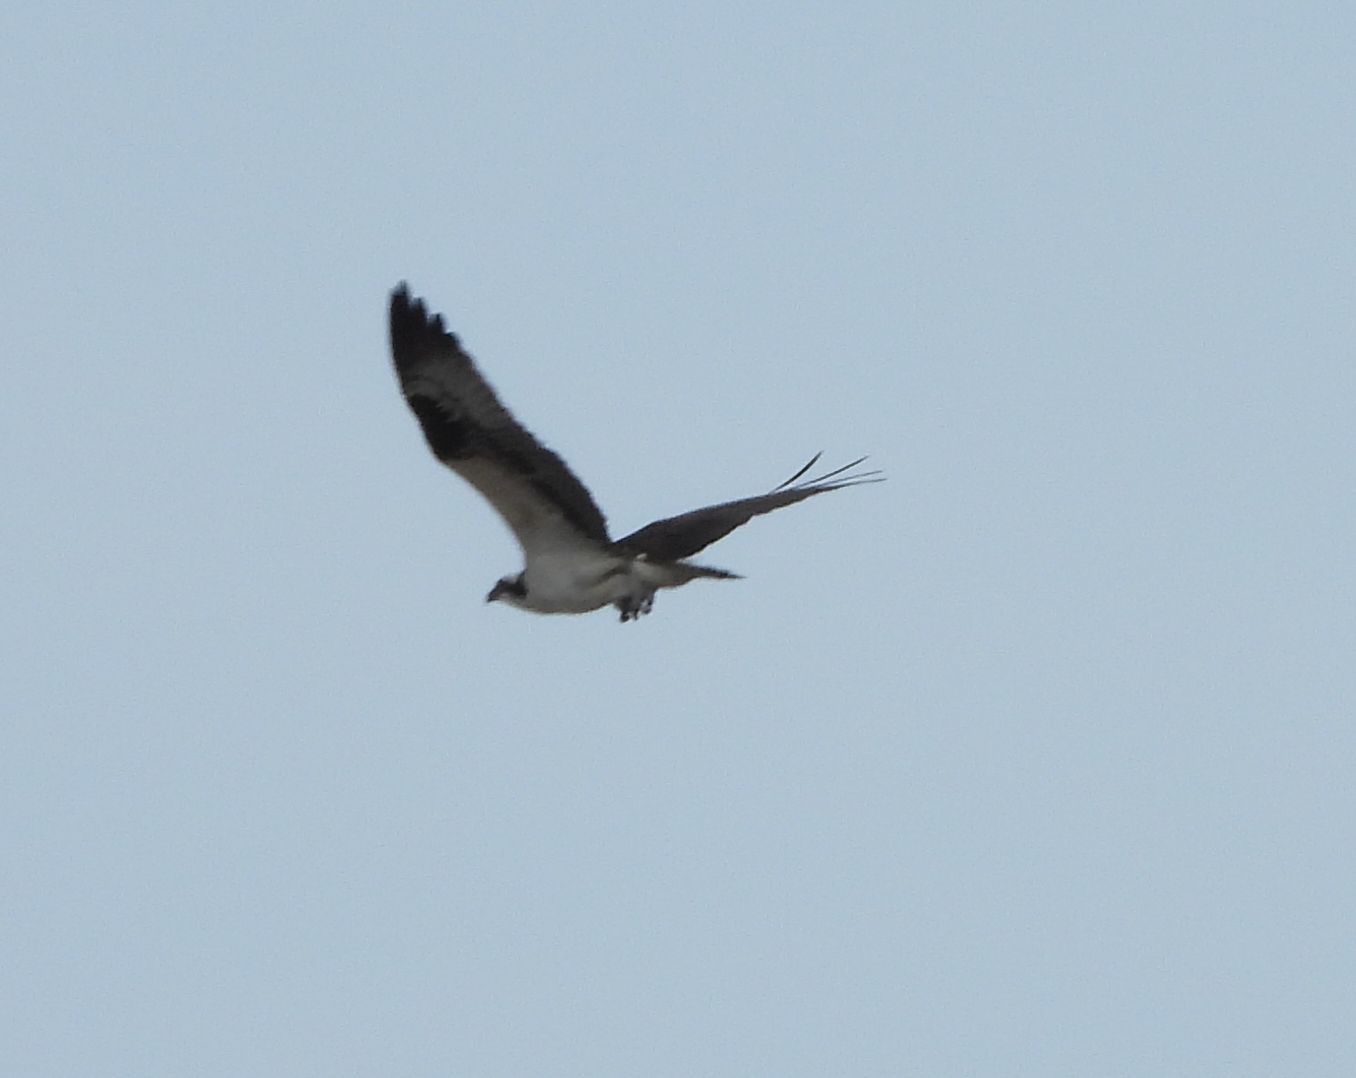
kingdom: Animalia
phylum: Chordata
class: Aves
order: Accipitriformes
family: Pandionidae
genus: Pandion
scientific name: Pandion haliaetus
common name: Osprey
